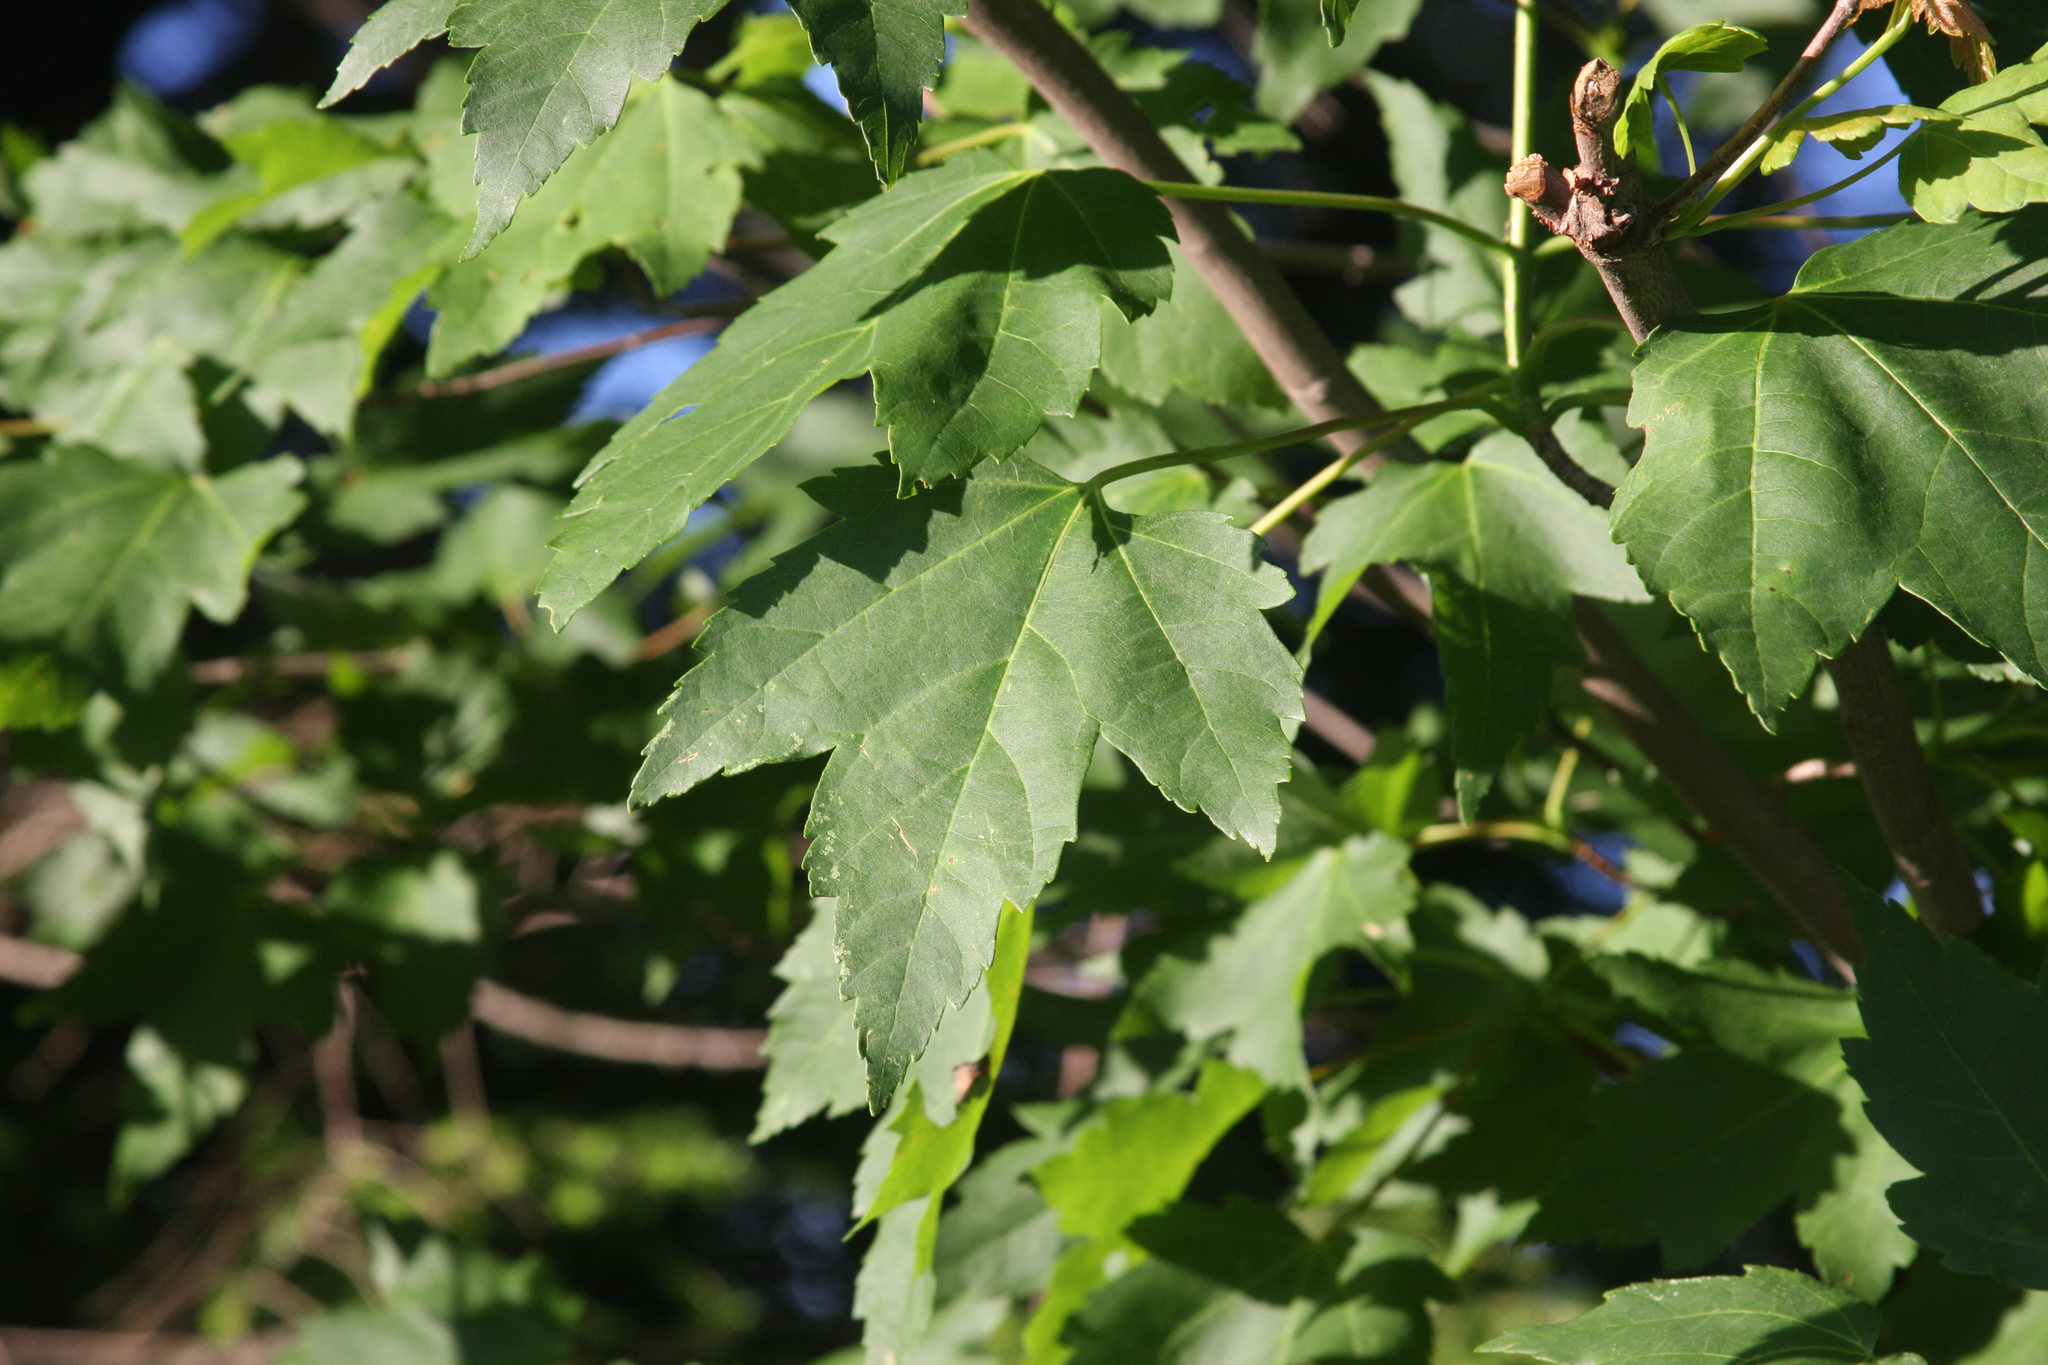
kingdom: Plantae
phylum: Tracheophyta
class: Magnoliopsida
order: Sapindales
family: Sapindaceae
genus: Acer
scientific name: Acer rubrum
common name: Red maple
